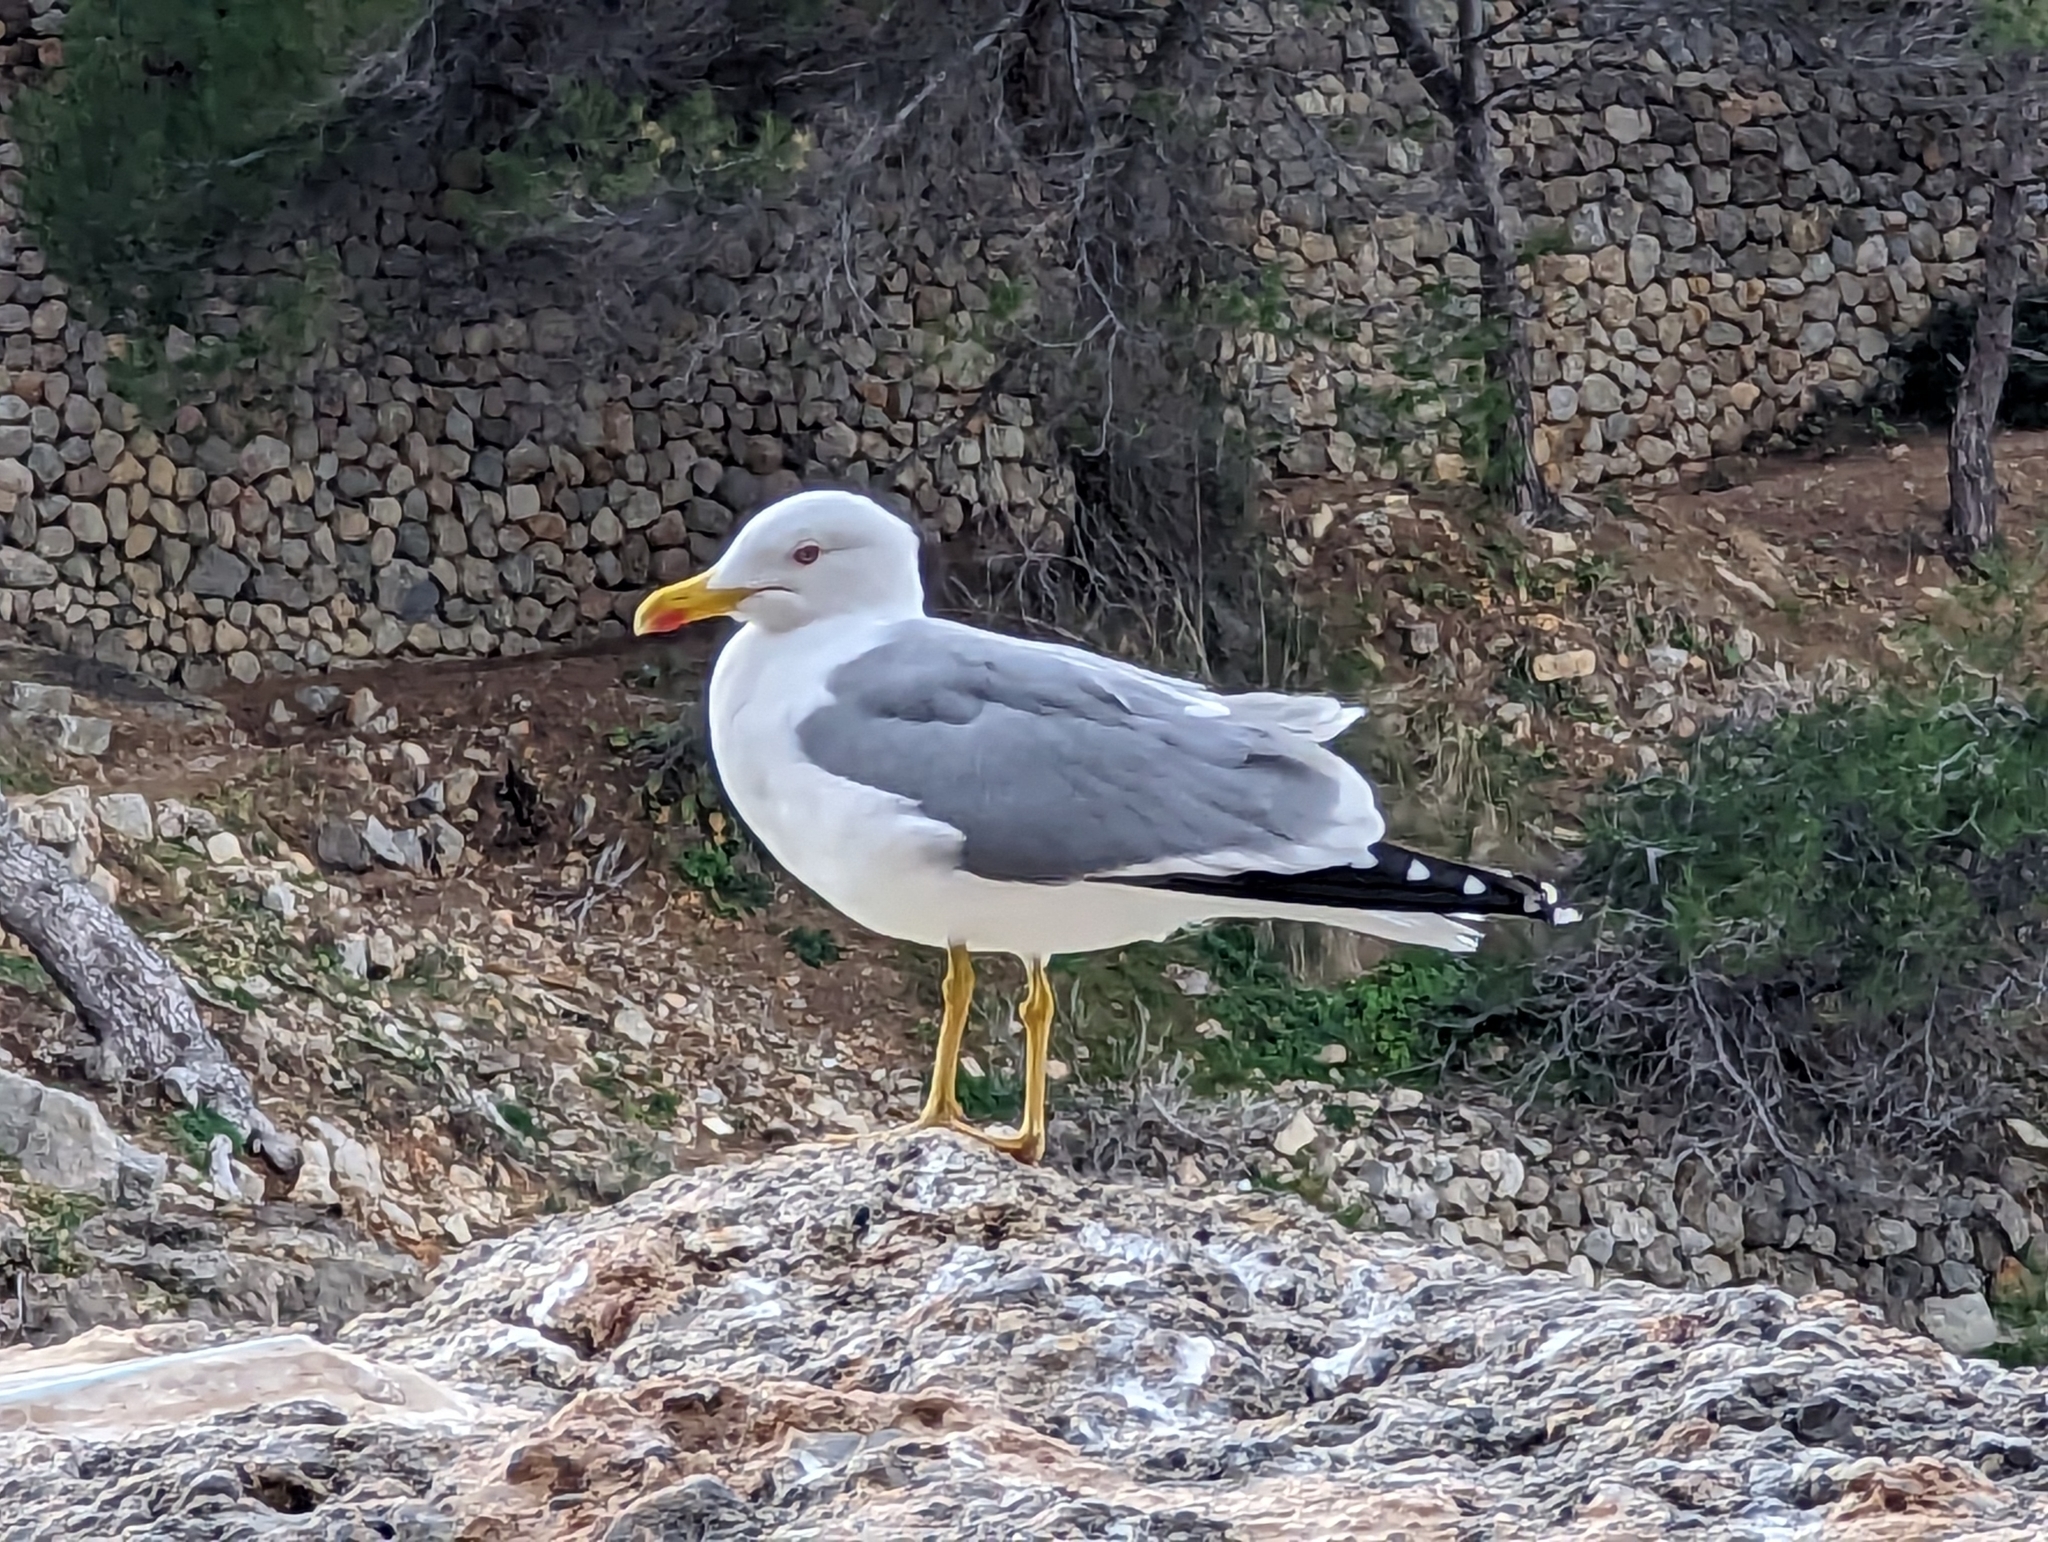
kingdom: Animalia
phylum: Chordata
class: Aves
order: Charadriiformes
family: Laridae
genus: Larus
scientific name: Larus michahellis
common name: Yellow-legged gull
